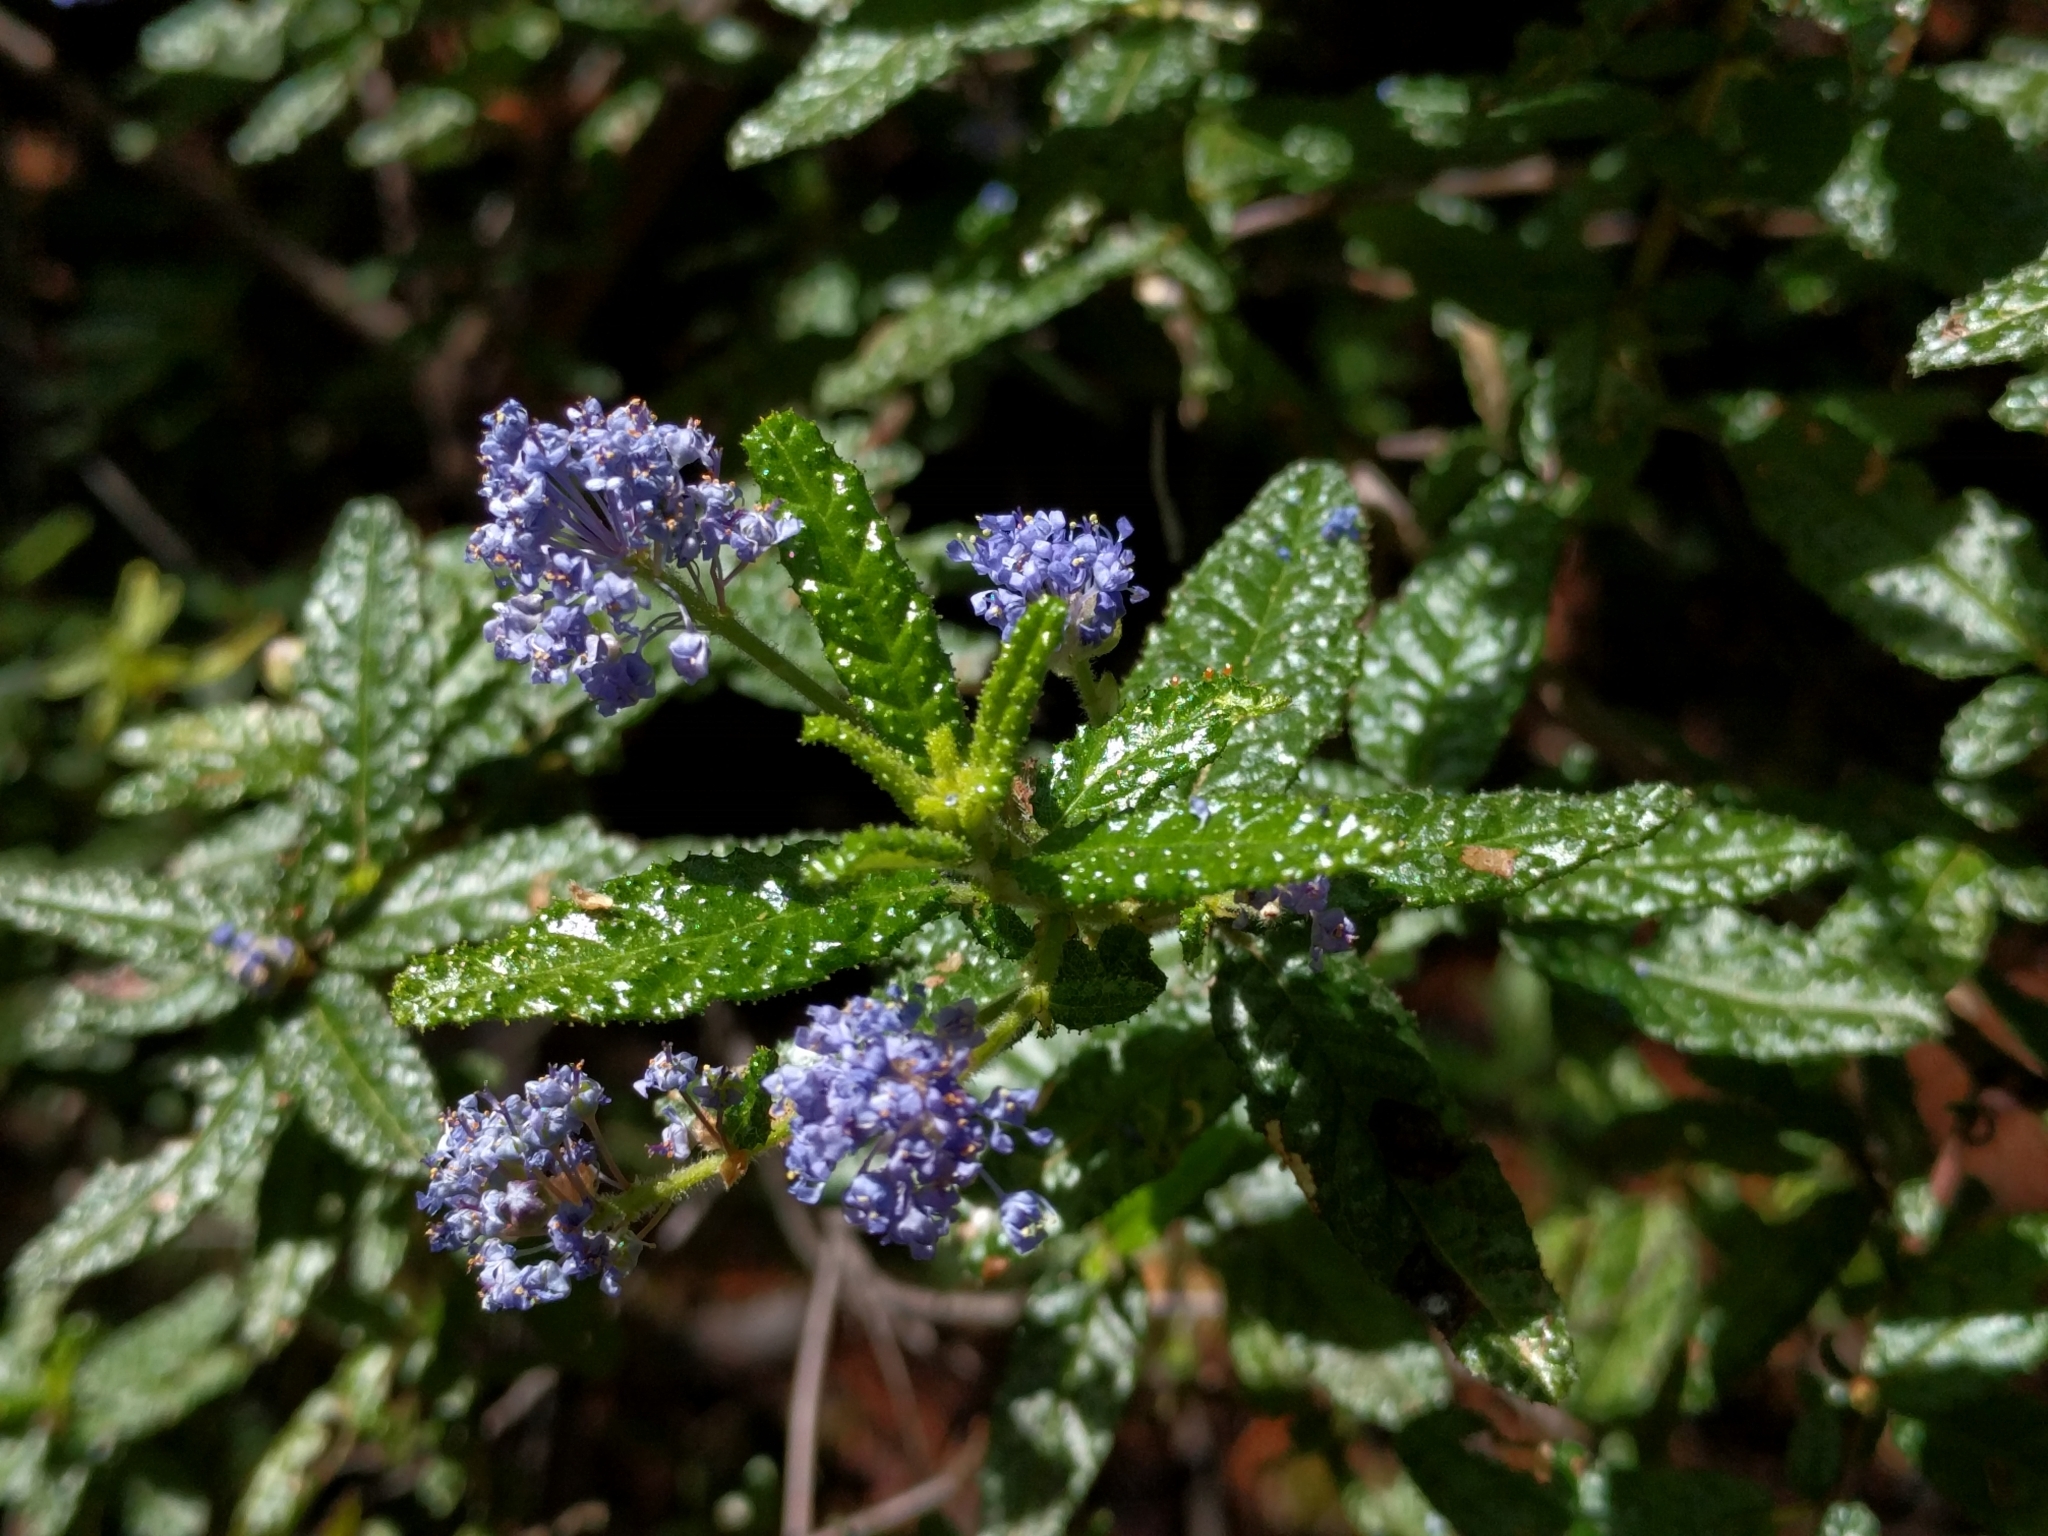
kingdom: Plantae
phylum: Tracheophyta
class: Magnoliopsida
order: Rosales
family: Rhamnaceae
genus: Ceanothus
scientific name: Ceanothus papillosus
